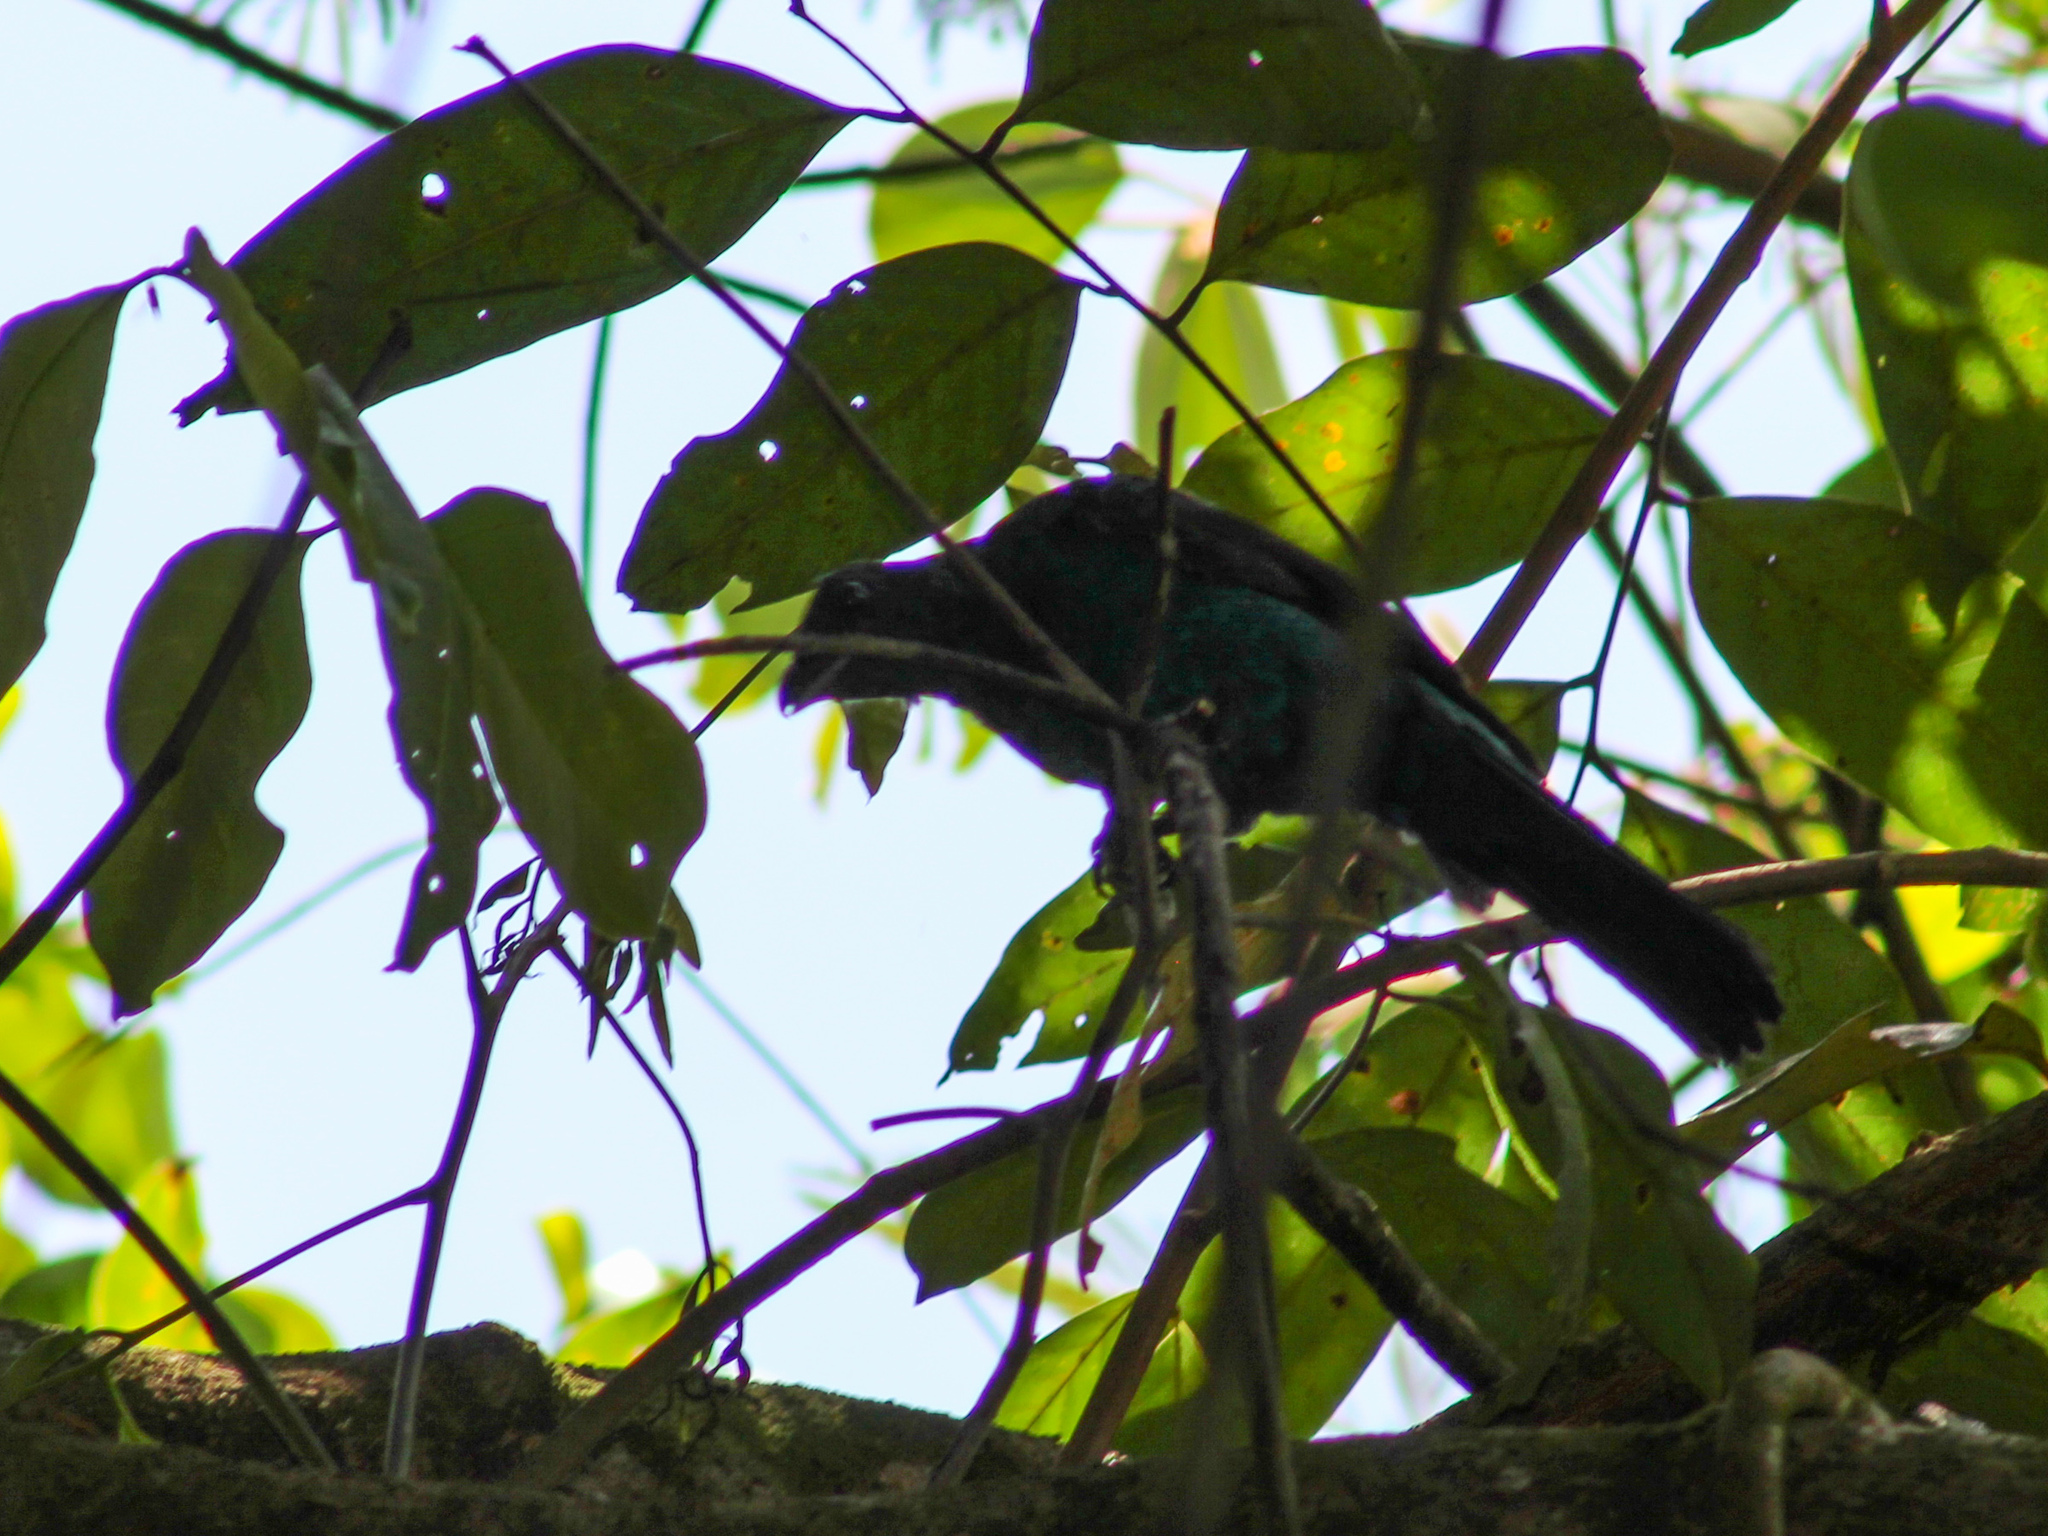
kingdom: Animalia
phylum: Chordata
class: Aves
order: Passeriformes
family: Irenidae
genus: Irena
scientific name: Irena puella
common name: Asian fairy-bluebird
